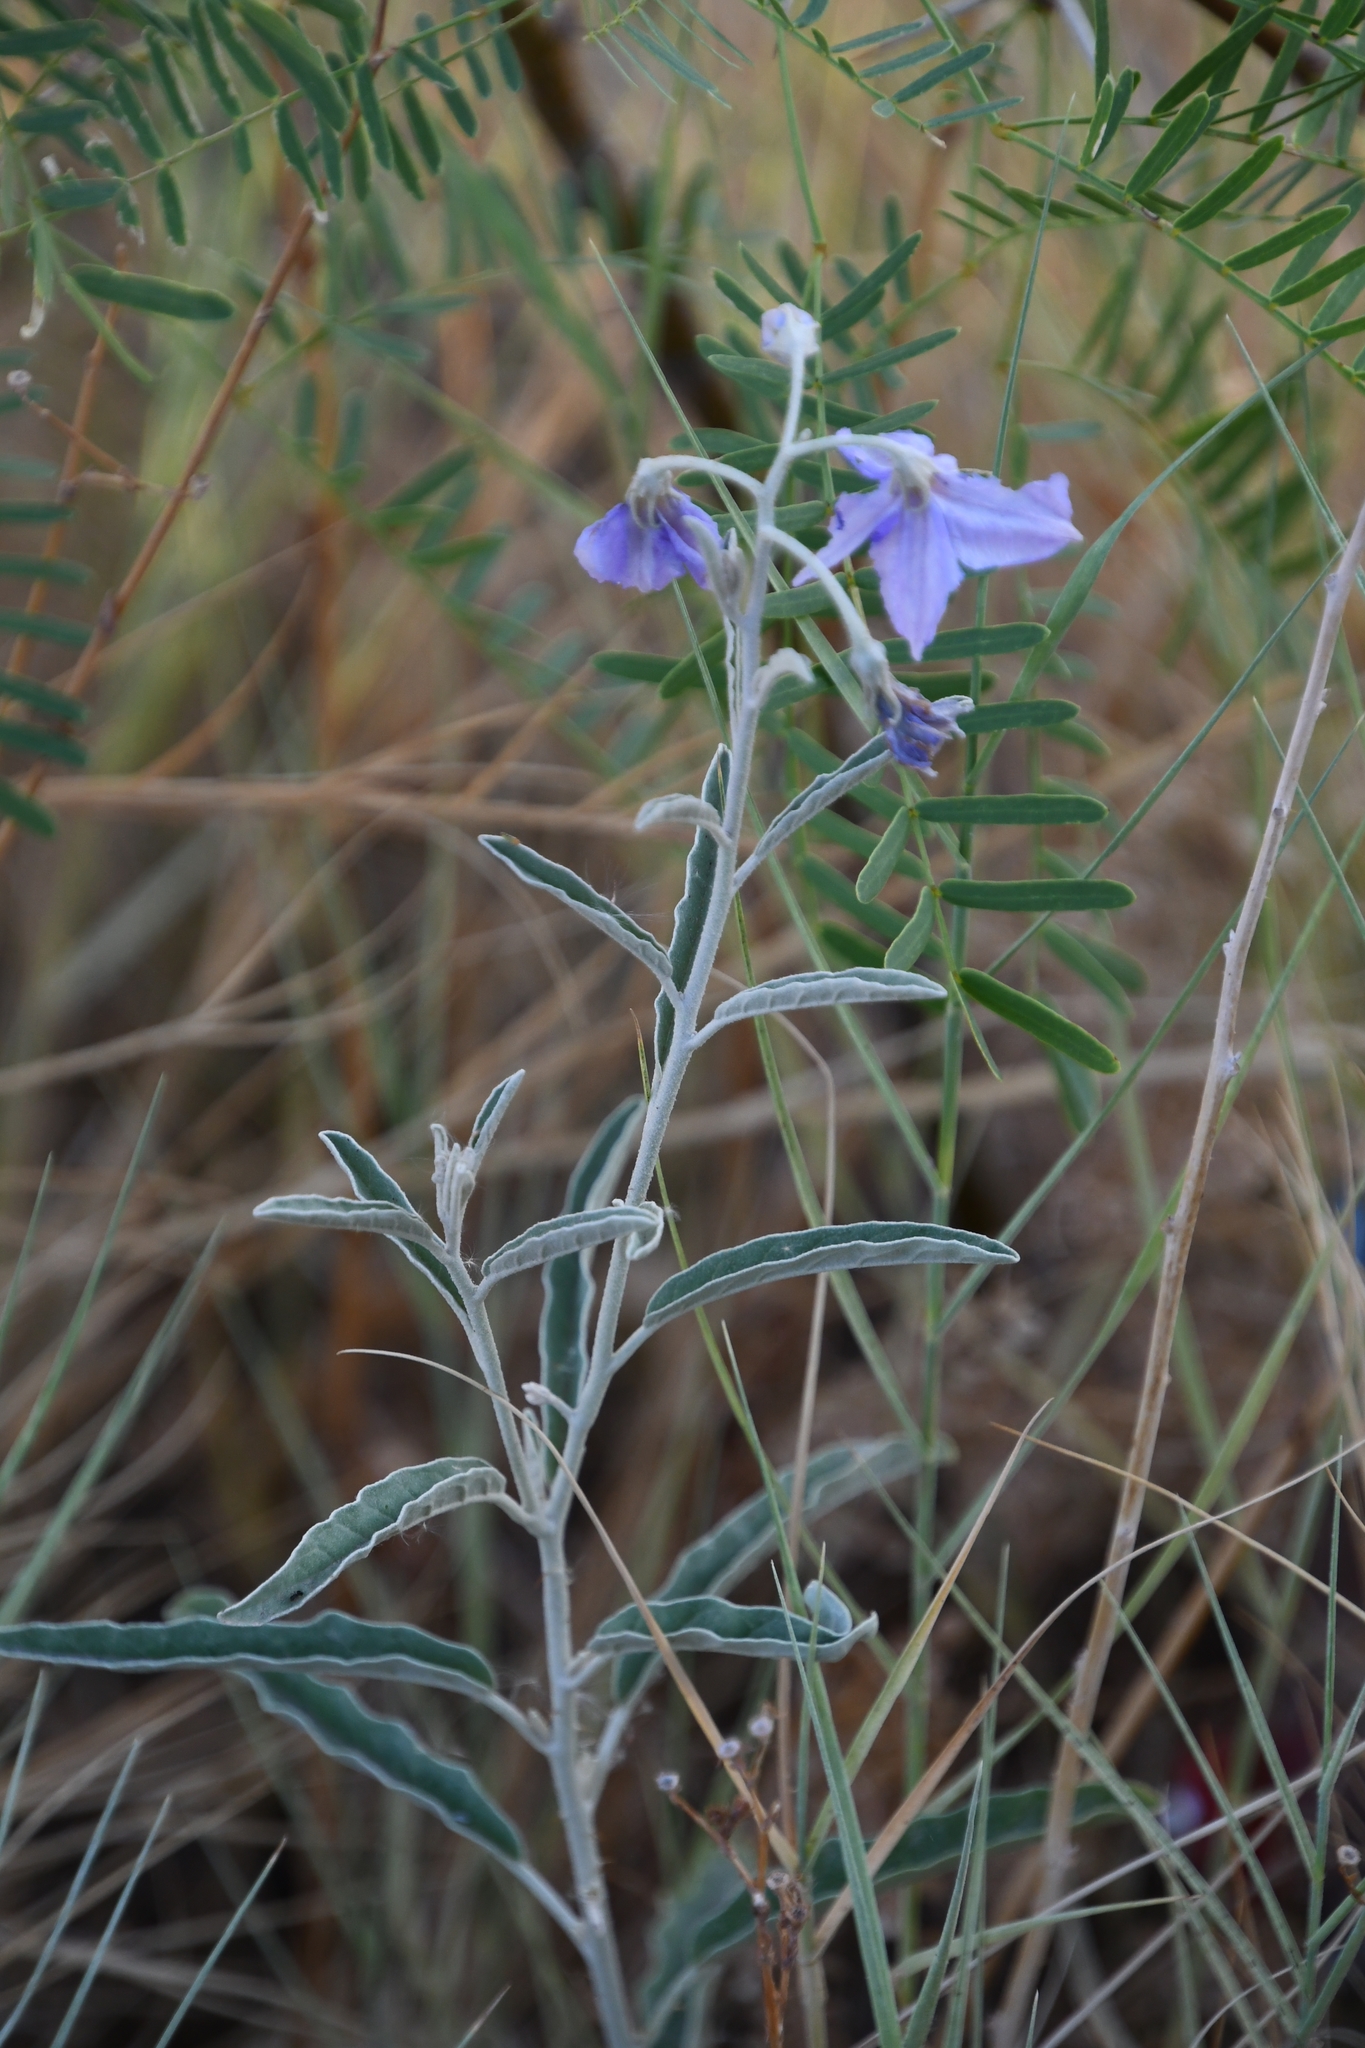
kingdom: Plantae
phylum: Tracheophyta
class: Magnoliopsida
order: Solanales
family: Solanaceae
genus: Solanum
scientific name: Solanum elaeagnifolium
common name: Silverleaf nightshade
